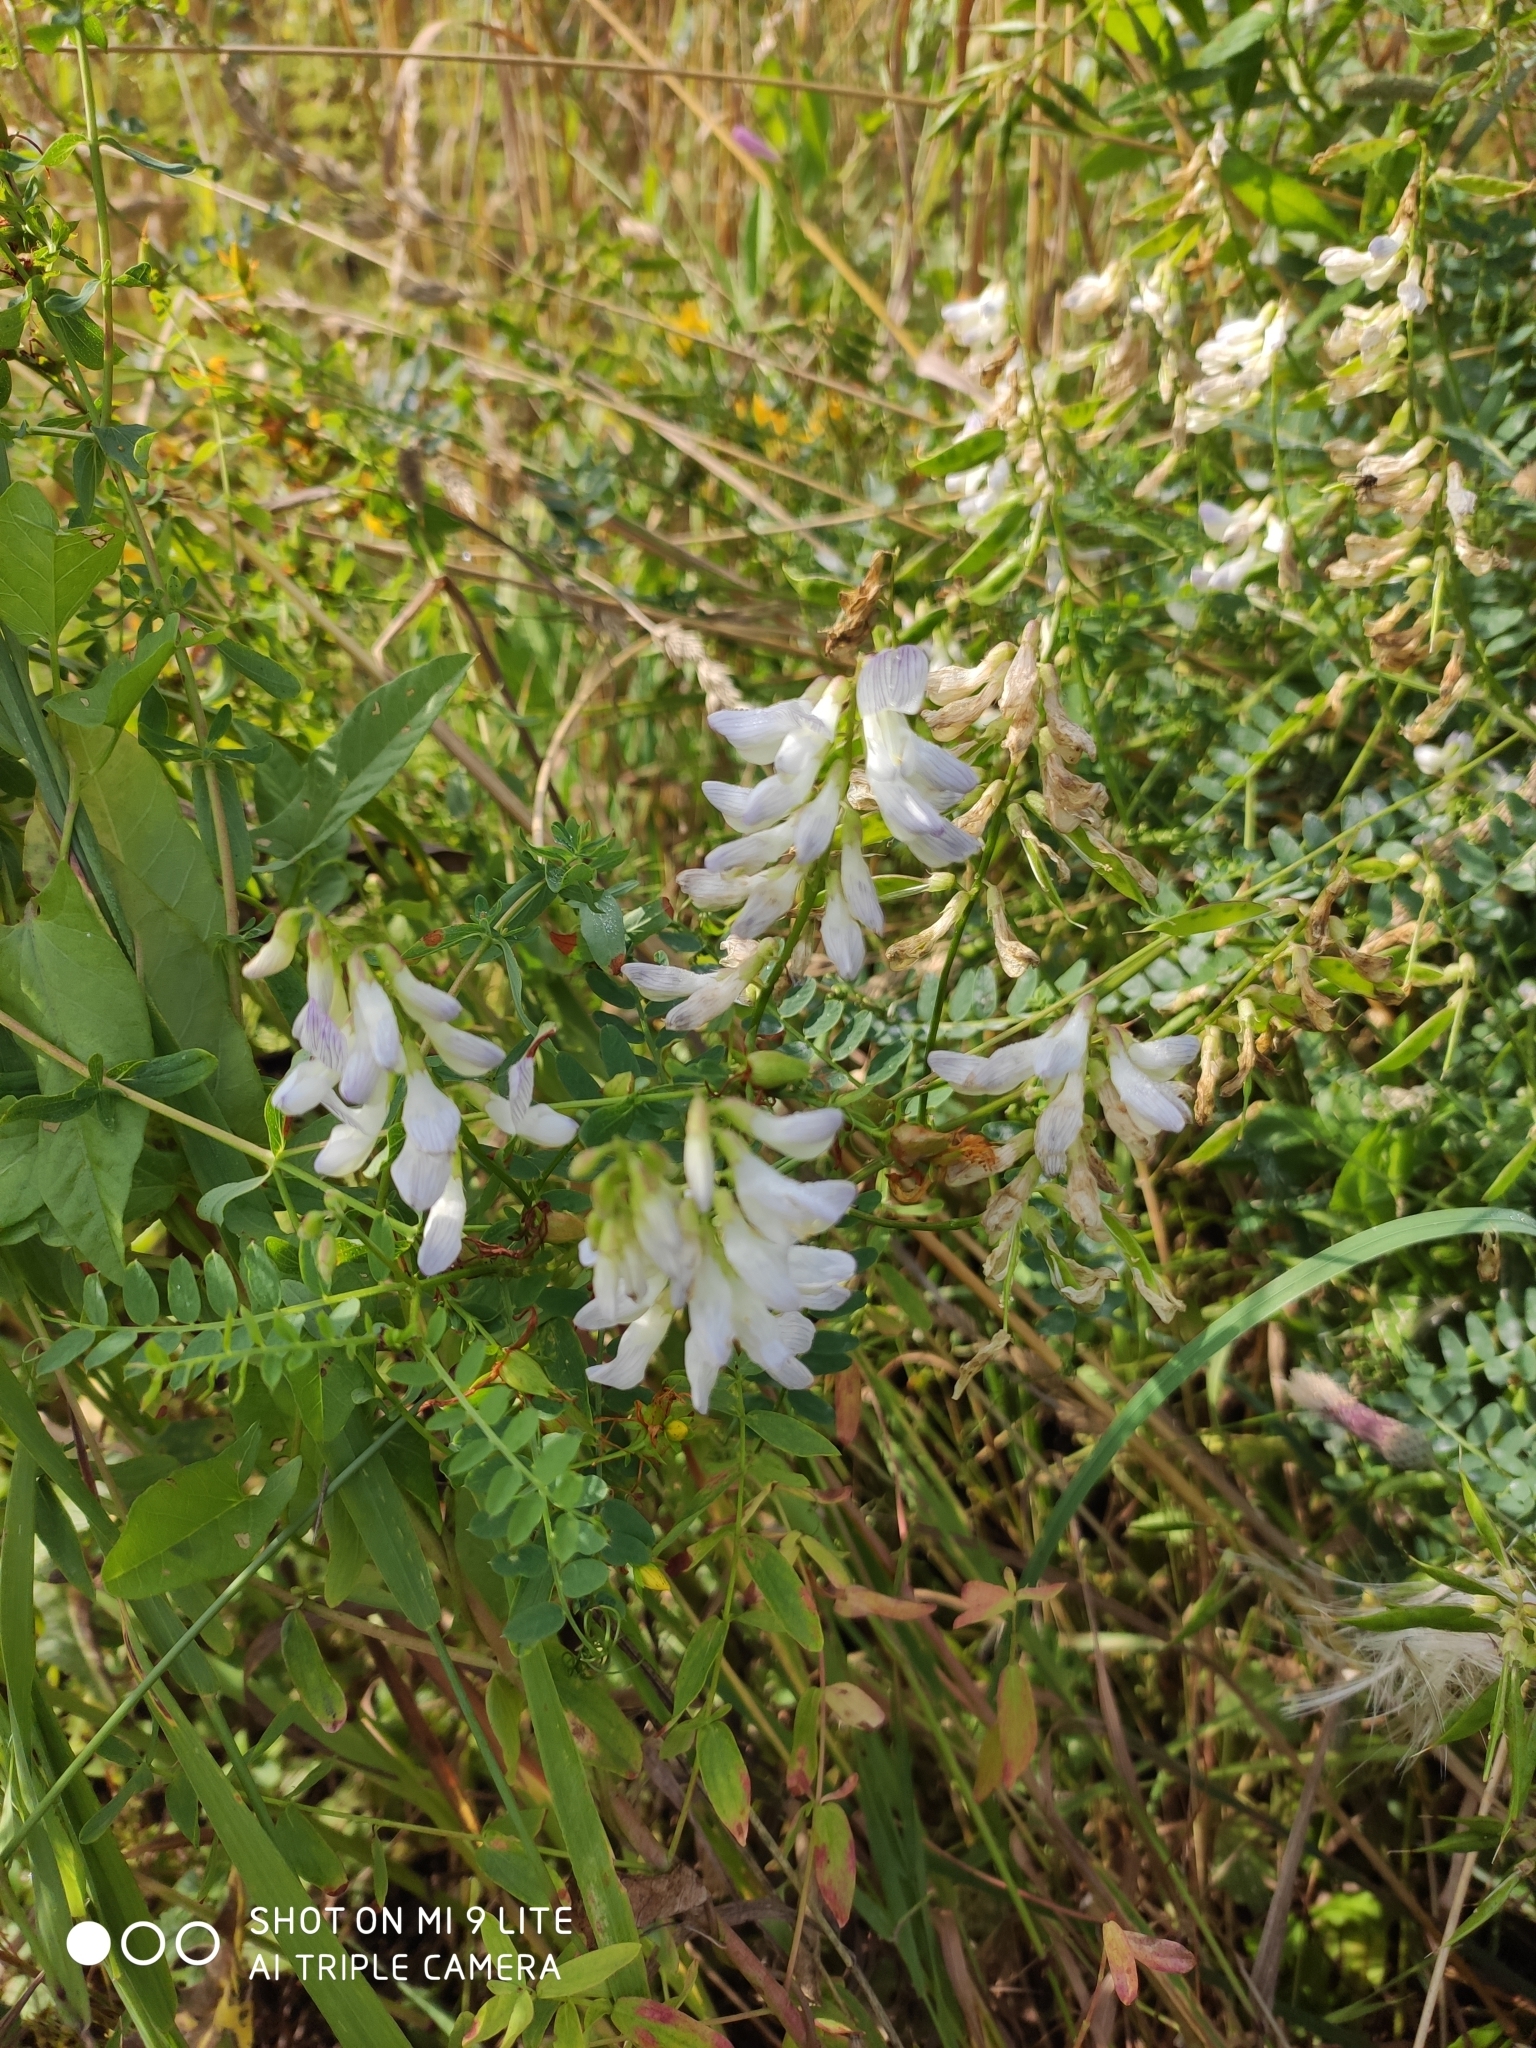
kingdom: Plantae
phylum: Tracheophyta
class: Magnoliopsida
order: Fabales
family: Fabaceae
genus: Vicia
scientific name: Vicia sylvatica
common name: Wood vetch
